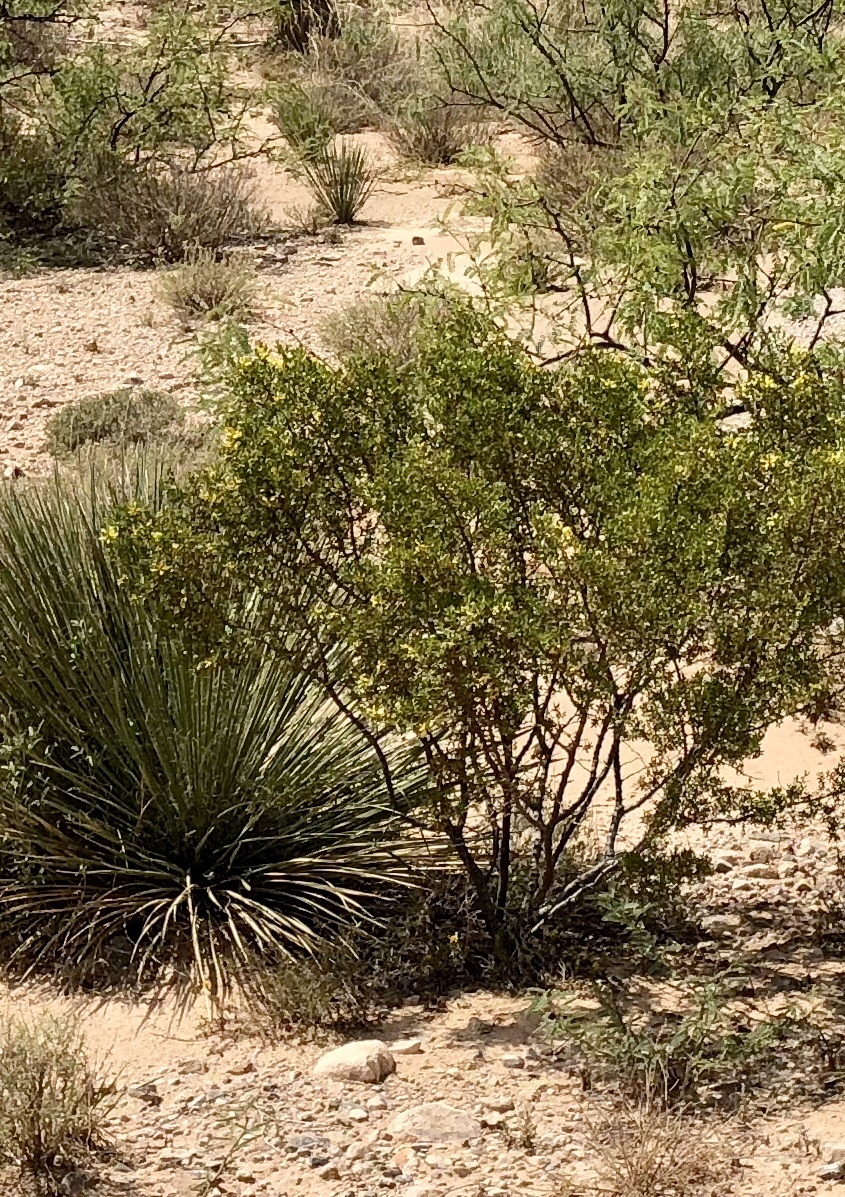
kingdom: Plantae
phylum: Tracheophyta
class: Magnoliopsida
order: Zygophyllales
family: Zygophyllaceae
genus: Larrea
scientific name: Larrea tridentata
